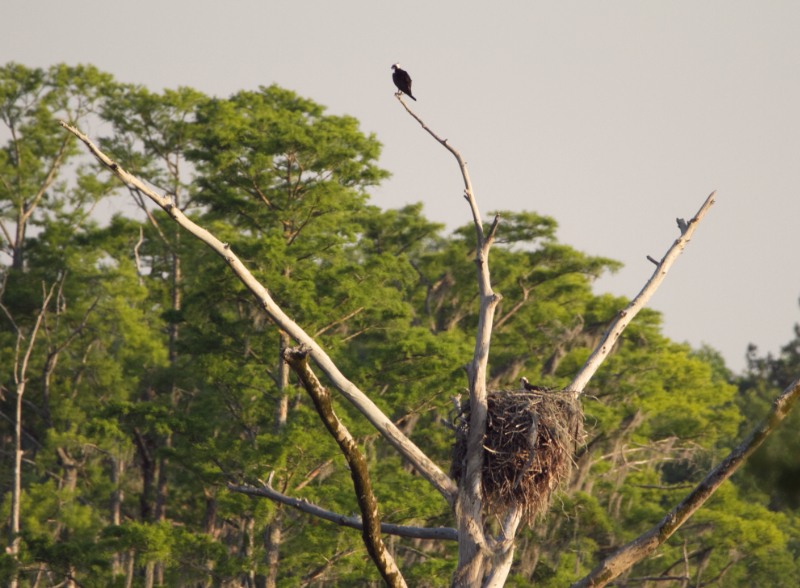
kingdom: Animalia
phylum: Chordata
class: Aves
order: Accipitriformes
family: Pandionidae
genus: Pandion
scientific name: Pandion haliaetus
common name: Osprey
